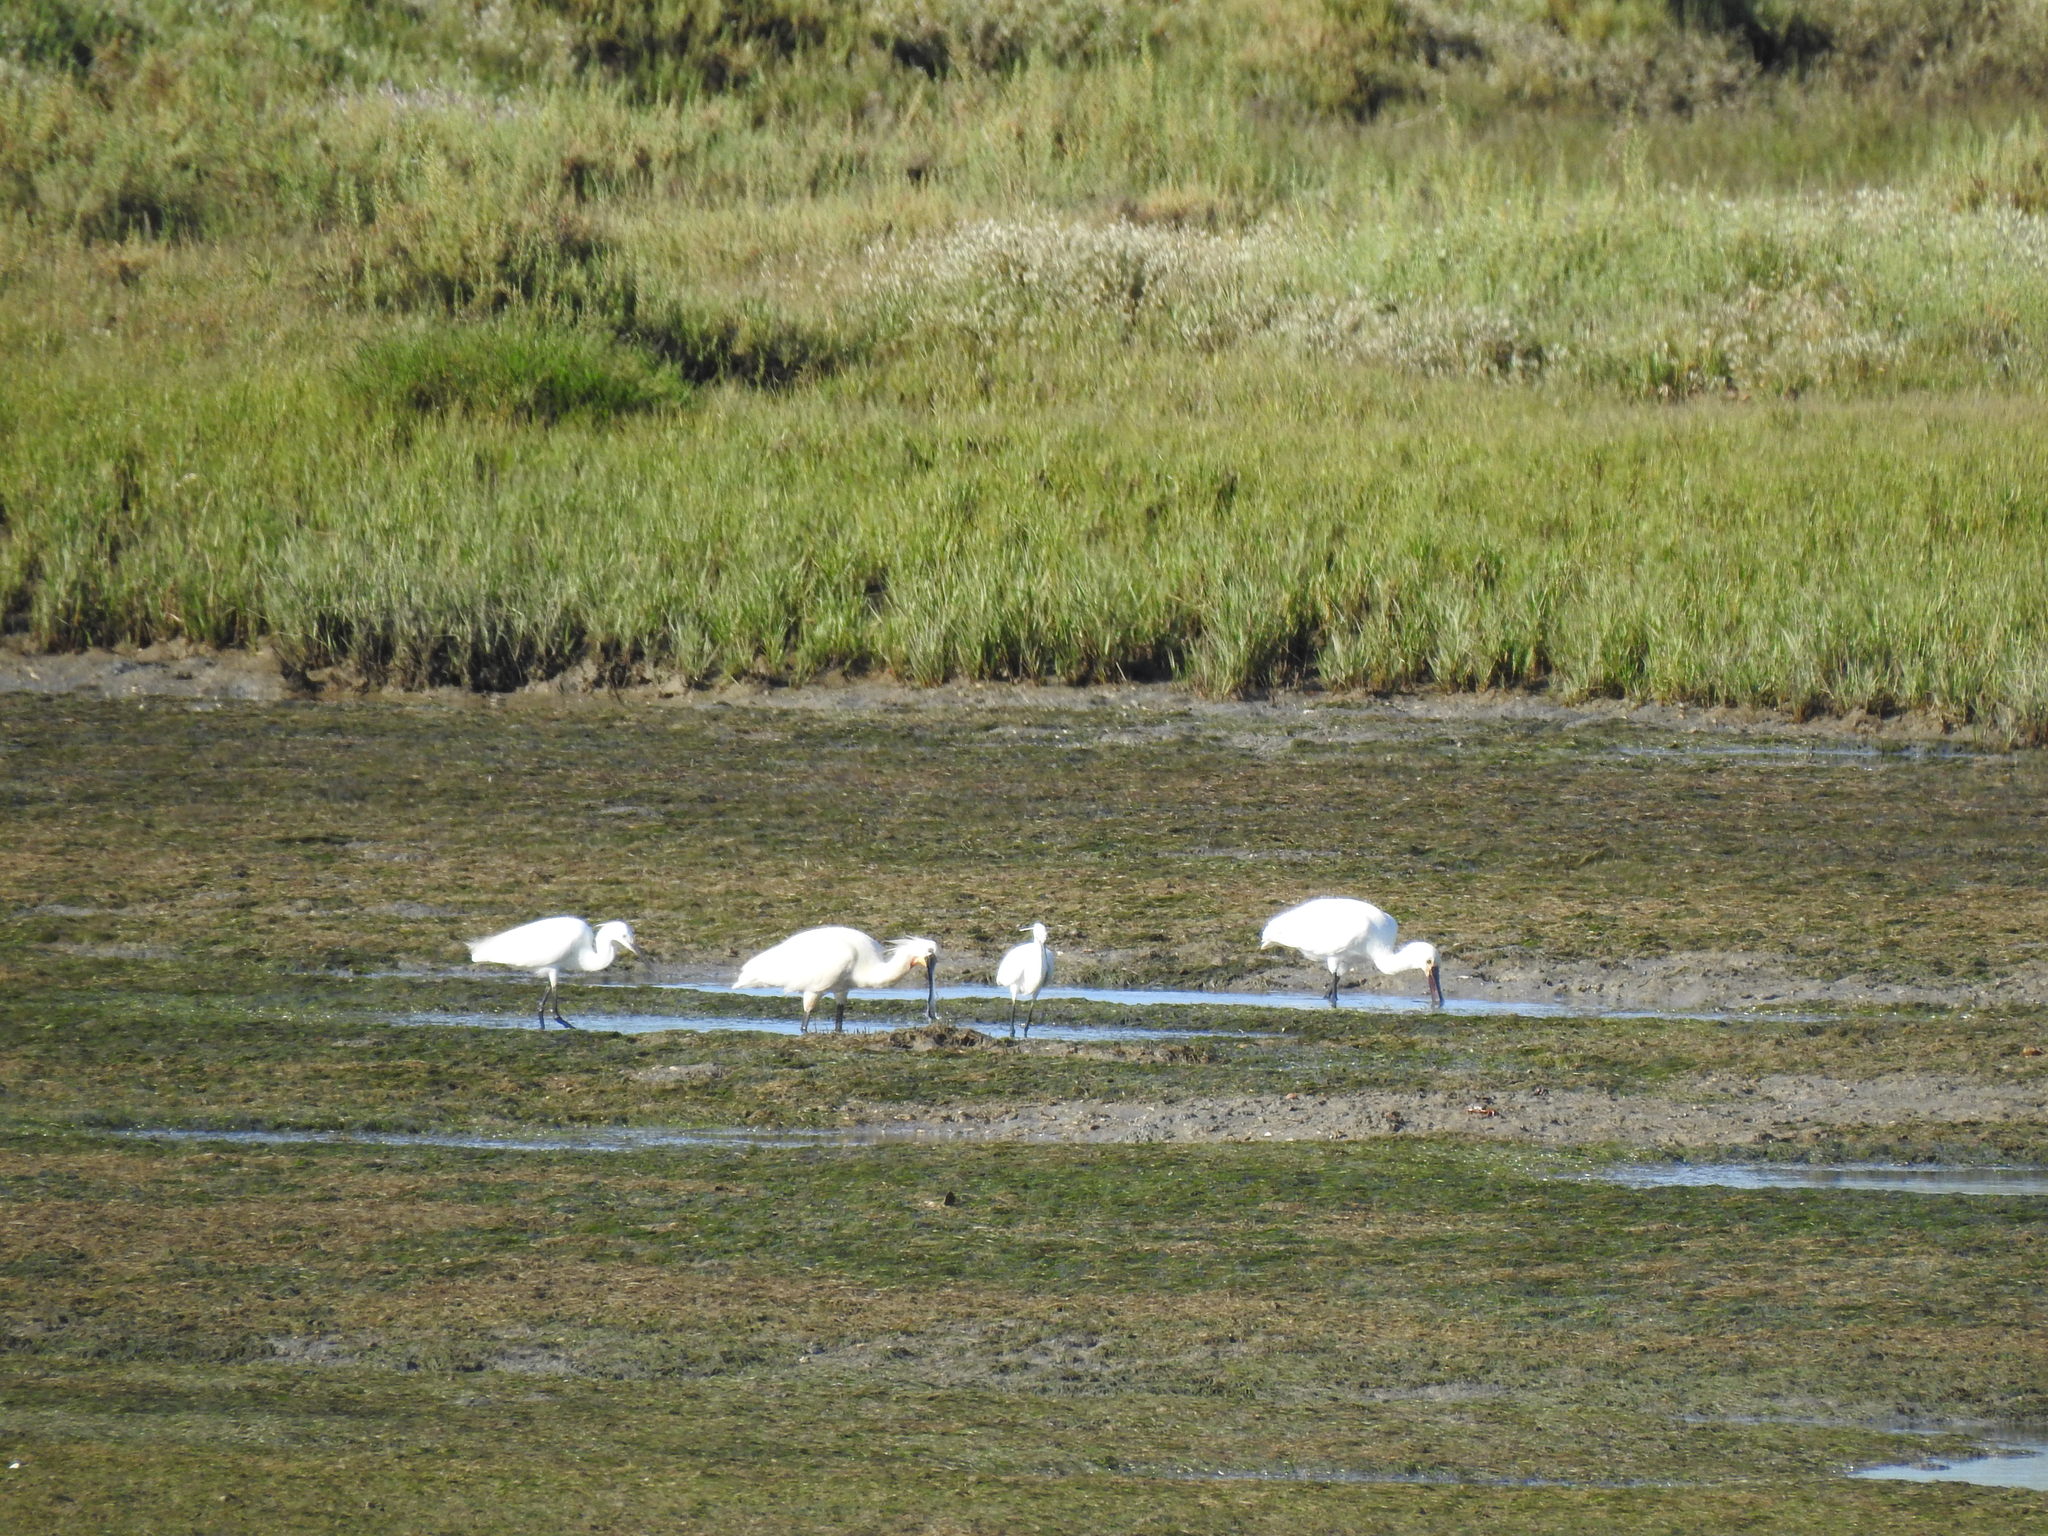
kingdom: Animalia
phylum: Chordata
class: Aves
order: Pelecaniformes
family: Threskiornithidae
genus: Platalea
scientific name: Platalea leucorodia
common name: Eurasian spoonbill
